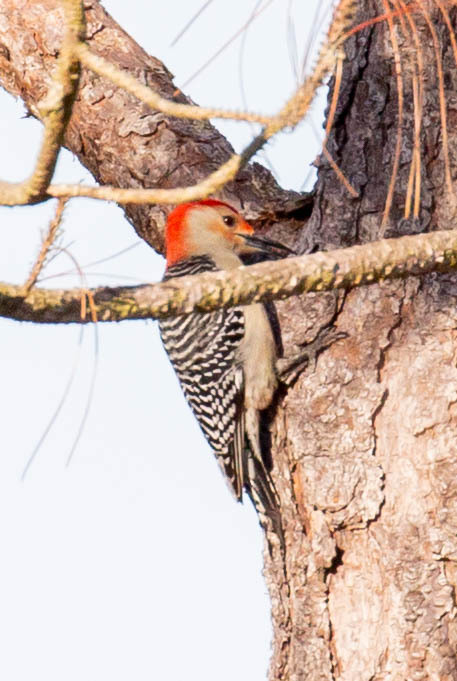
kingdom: Animalia
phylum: Chordata
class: Aves
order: Piciformes
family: Picidae
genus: Melanerpes
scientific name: Melanerpes carolinus
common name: Red-bellied woodpecker
